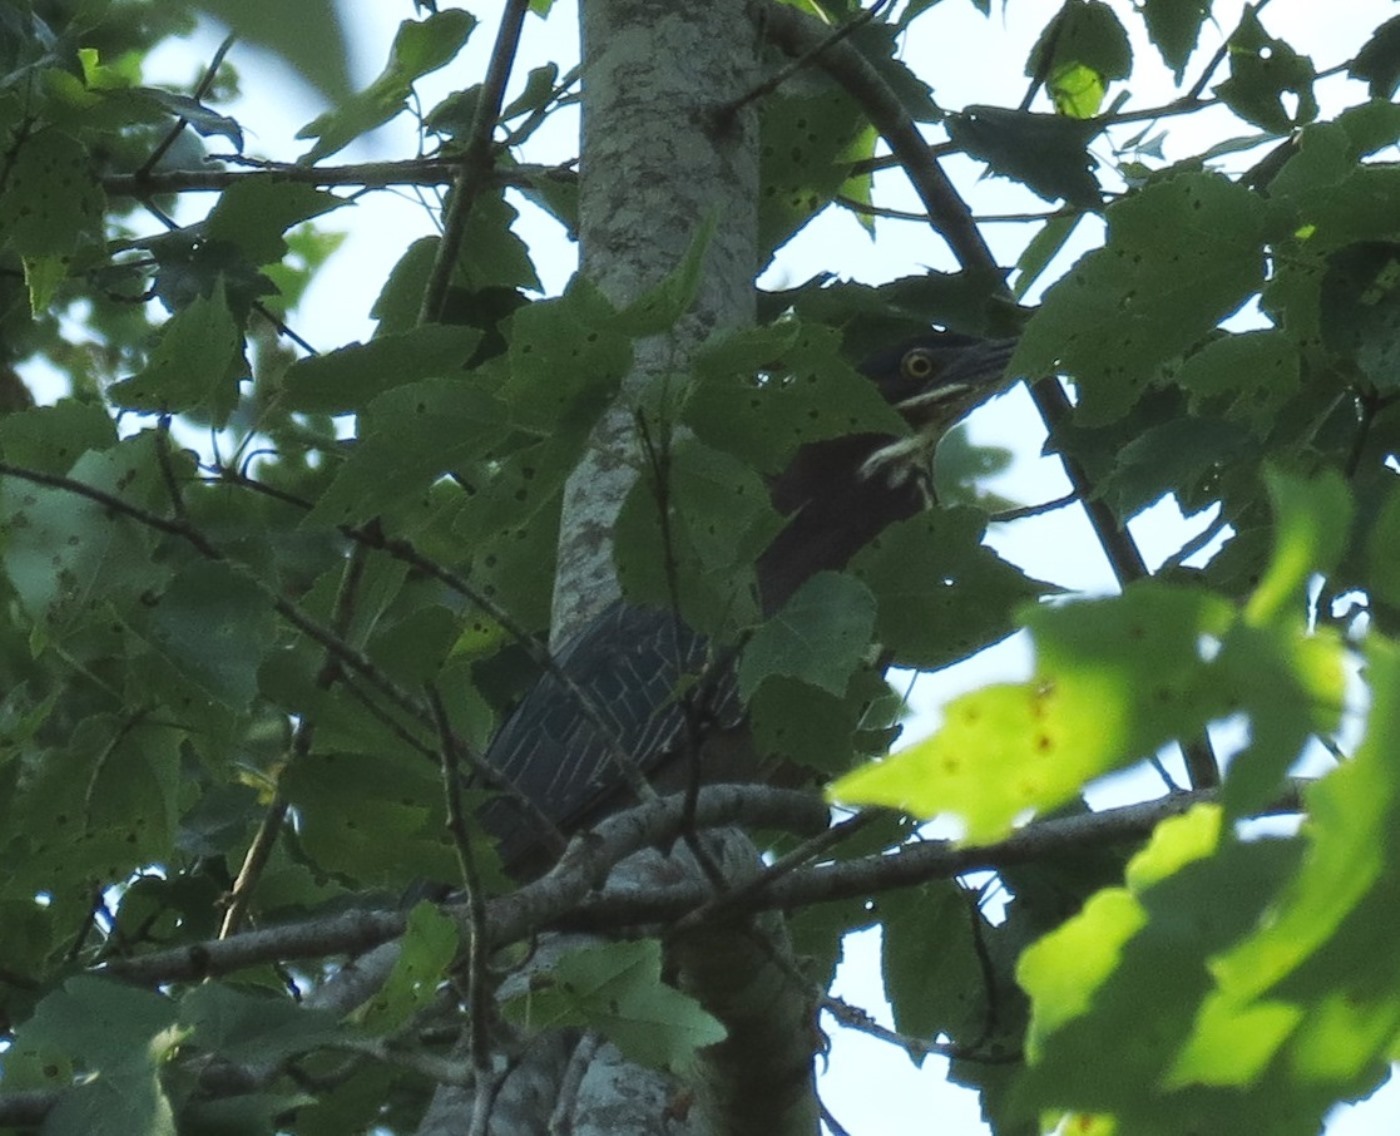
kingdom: Animalia
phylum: Chordata
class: Aves
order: Pelecaniformes
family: Ardeidae
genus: Butorides
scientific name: Butorides virescens
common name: Green heron
